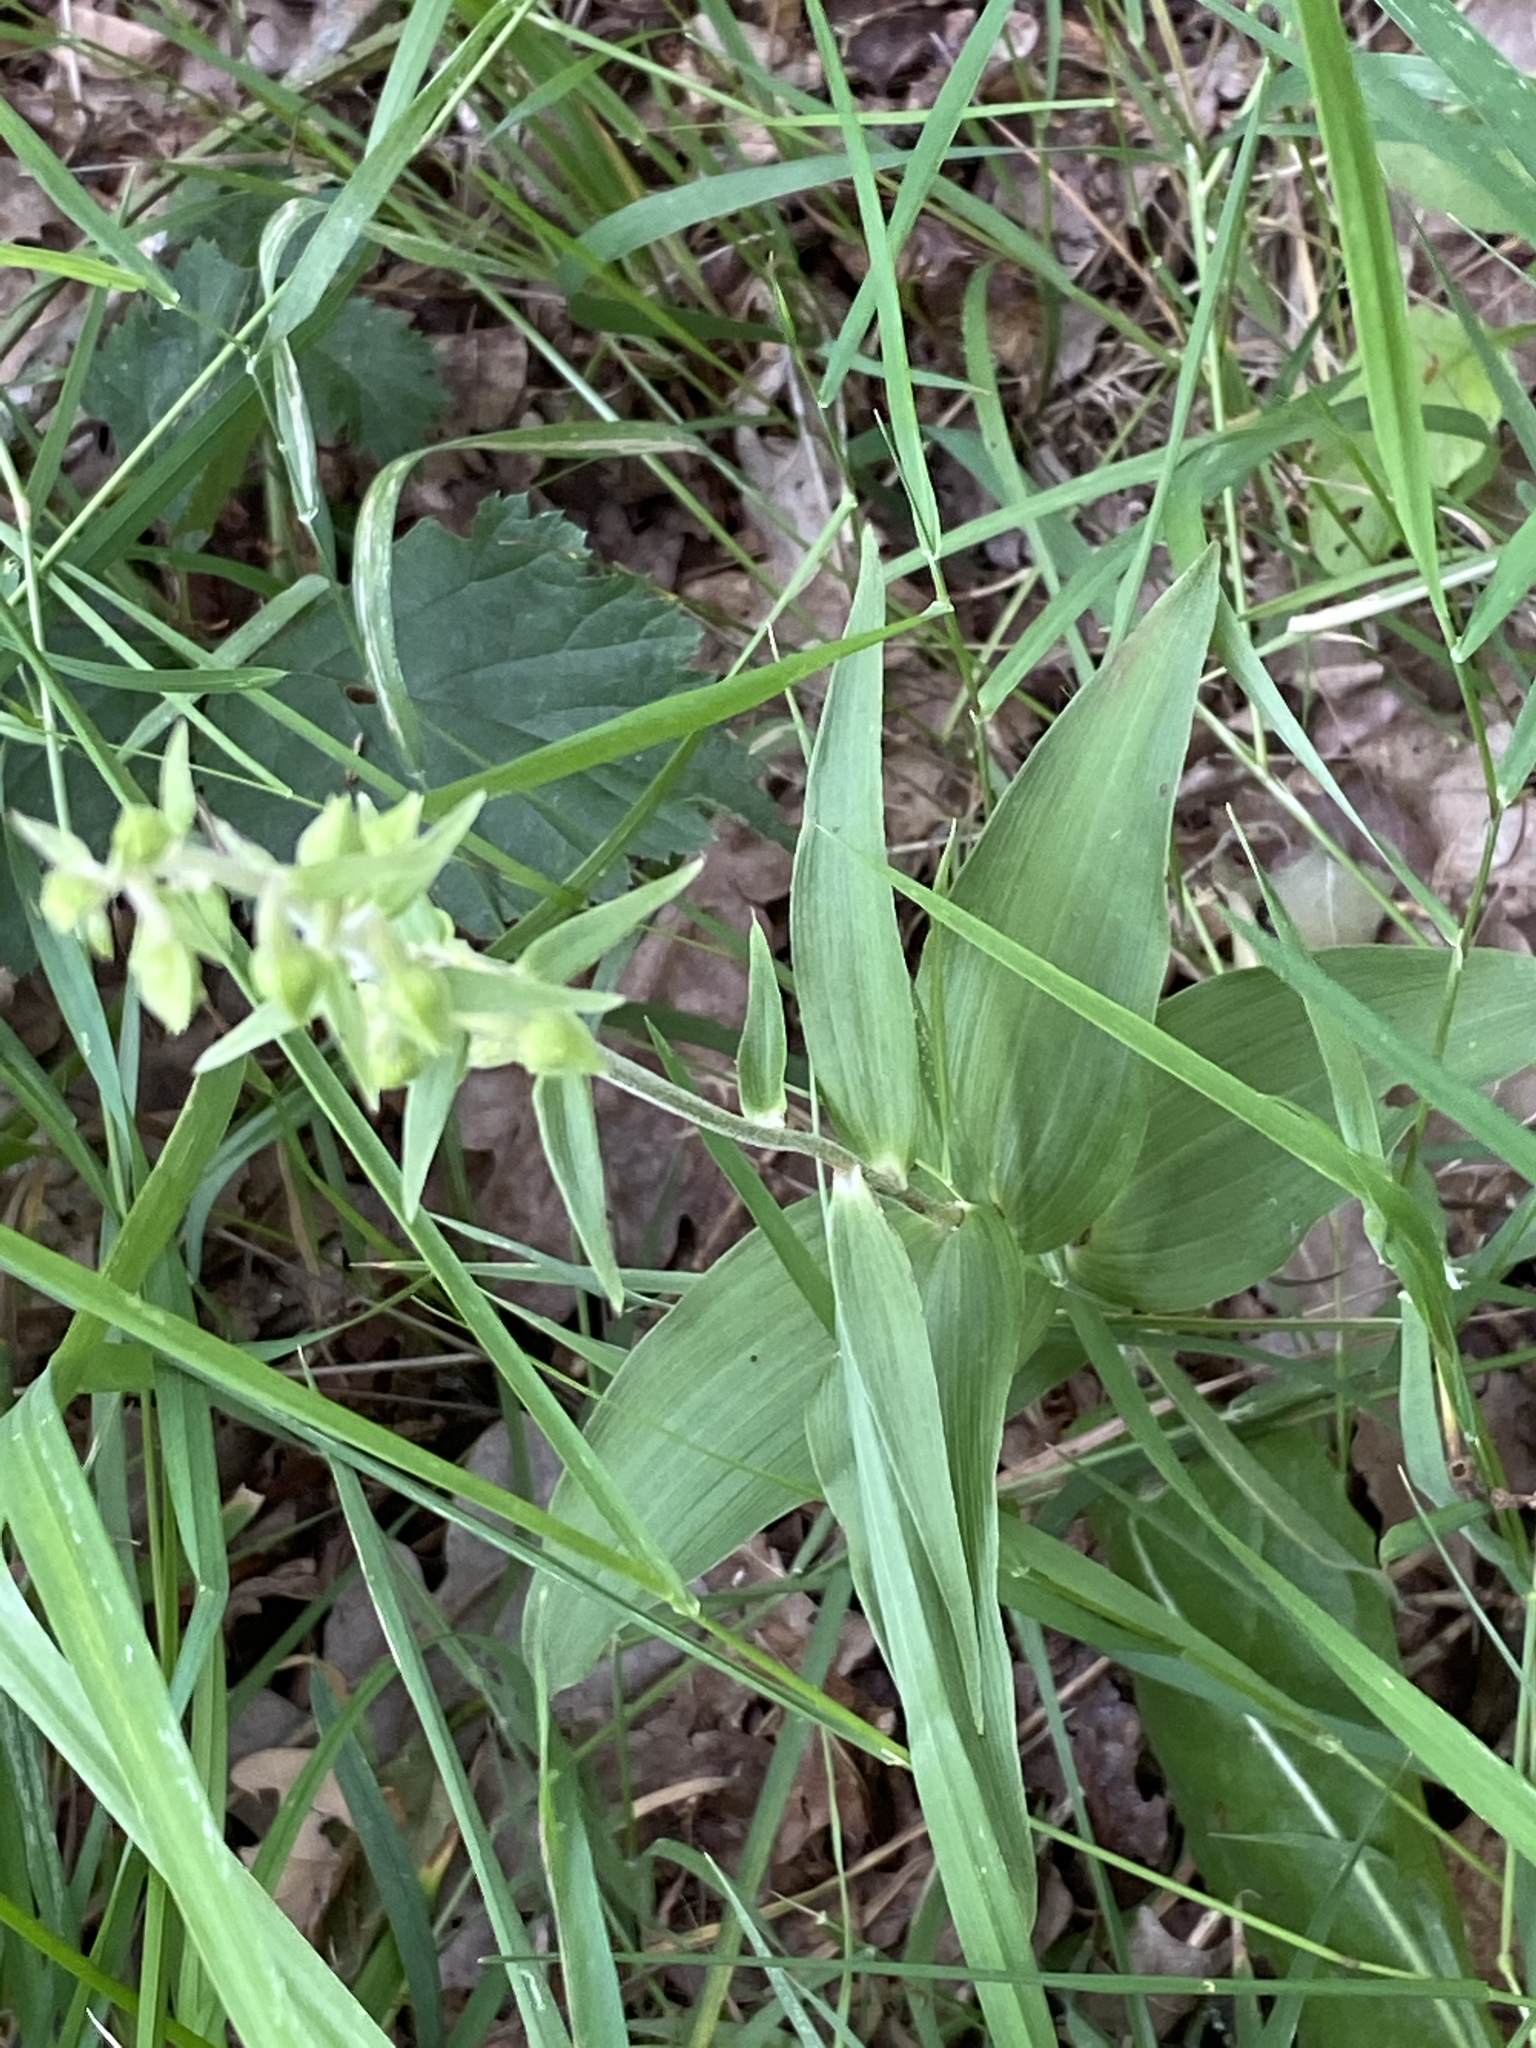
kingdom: Plantae
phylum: Tracheophyta
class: Liliopsida
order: Asparagales
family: Orchidaceae
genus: Epipactis
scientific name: Epipactis helleborine
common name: Broad-leaved helleborine
